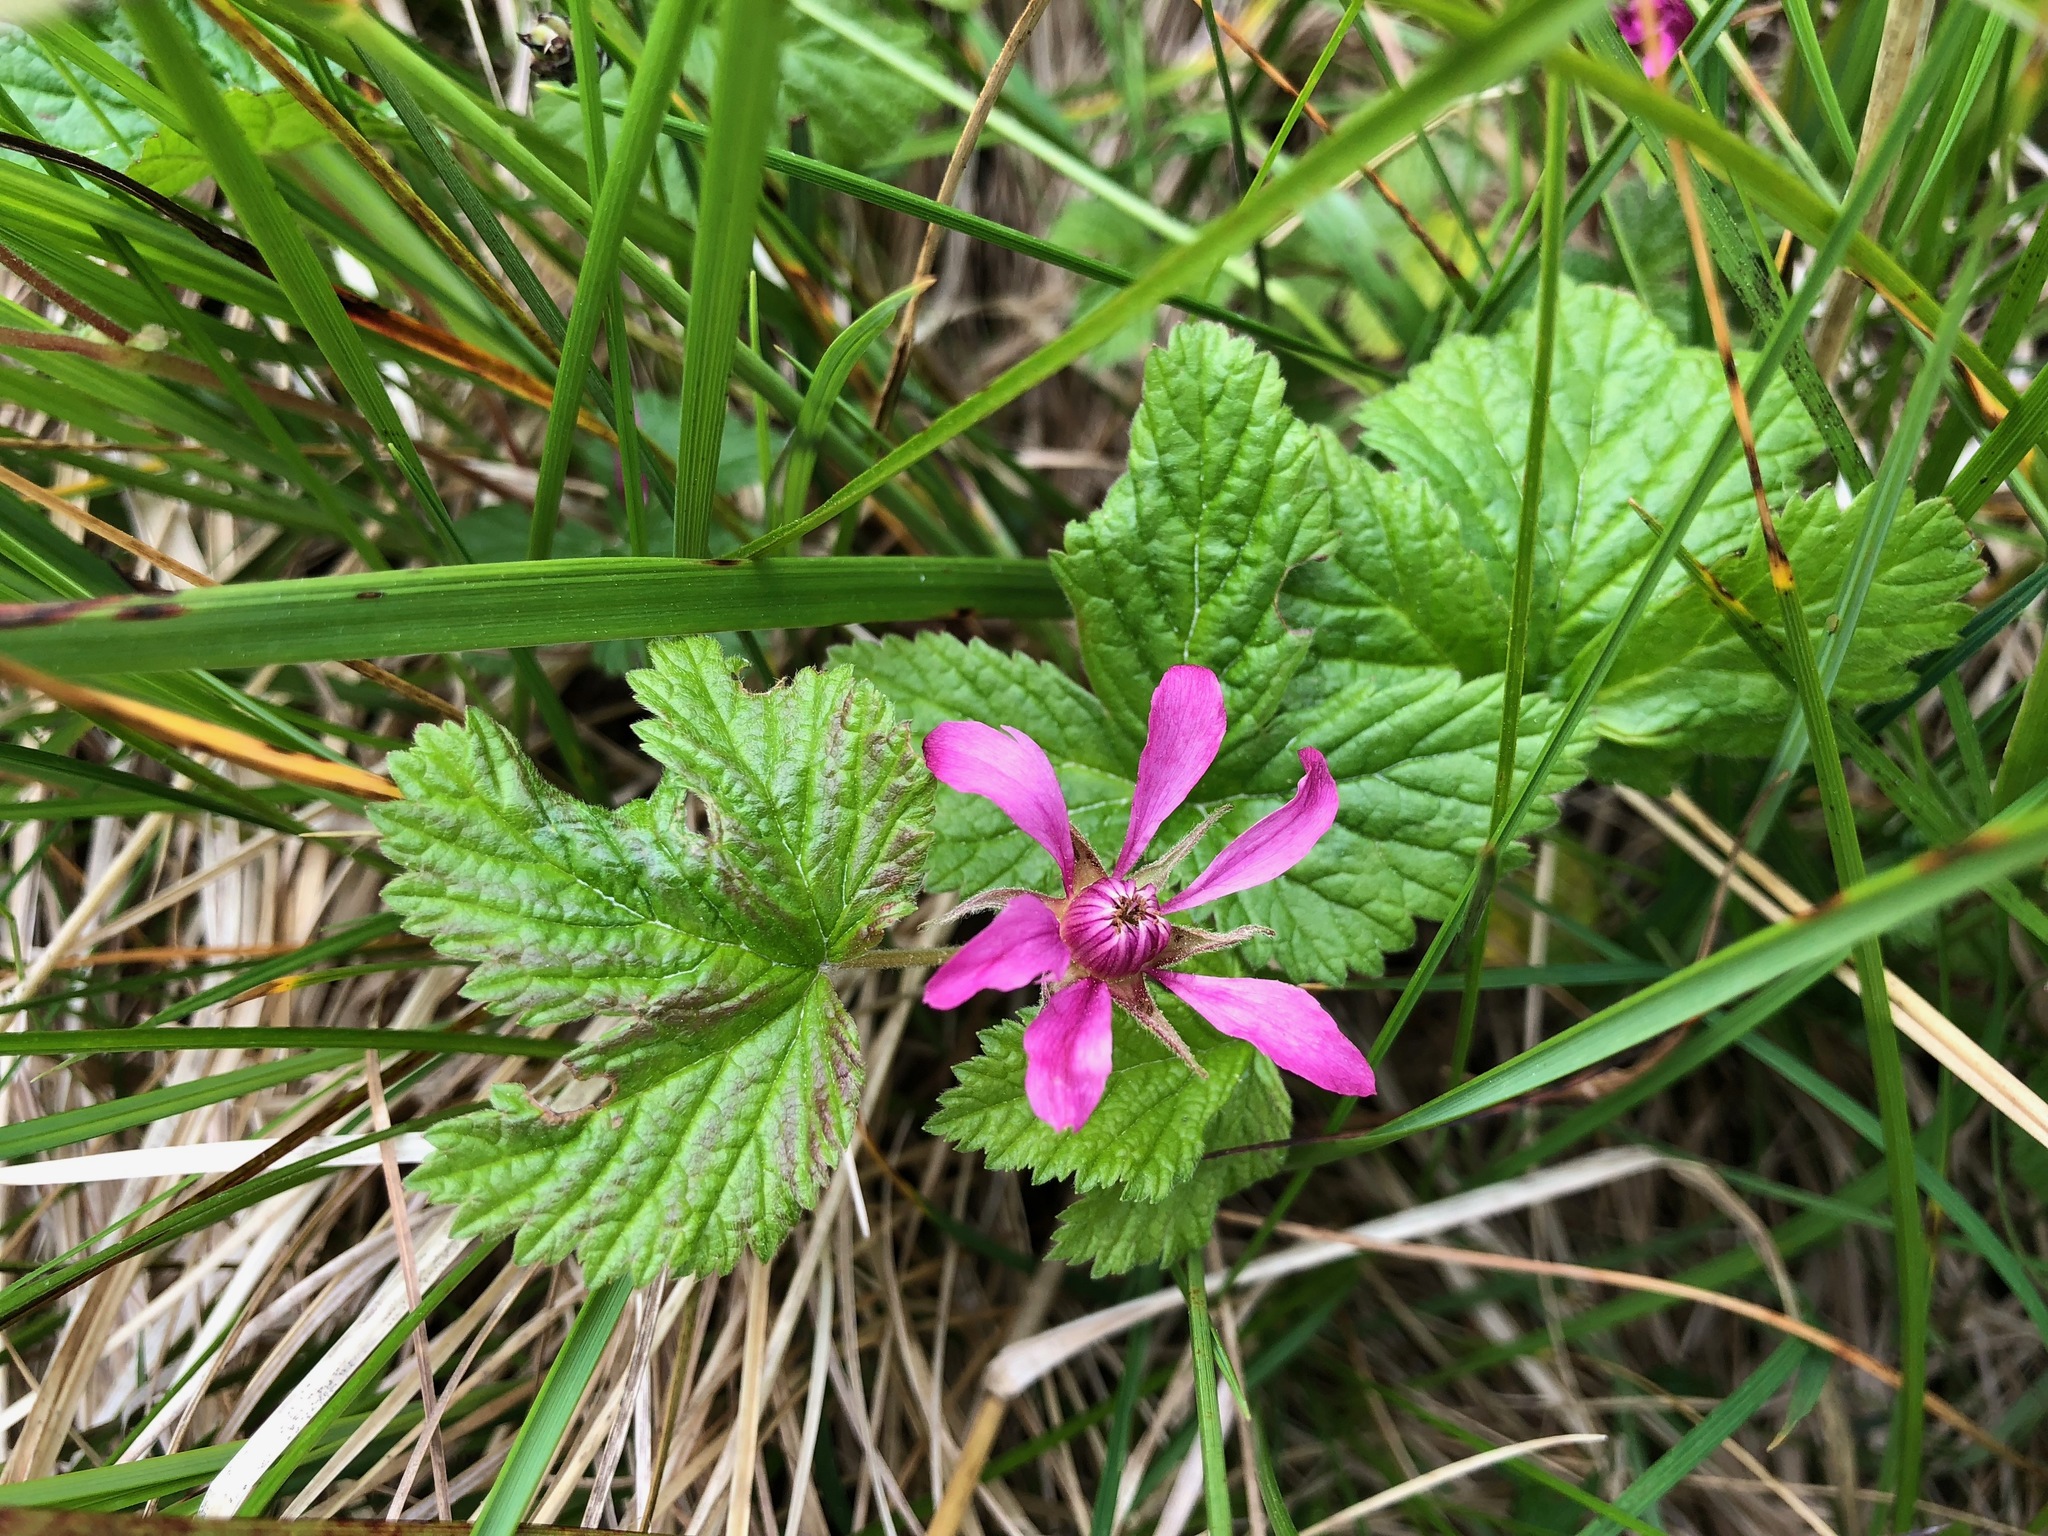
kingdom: Plantae
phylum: Tracheophyta
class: Magnoliopsida
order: Rosales
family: Rosaceae
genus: Rubus
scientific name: Rubus arcticus
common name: Arctic bramble
